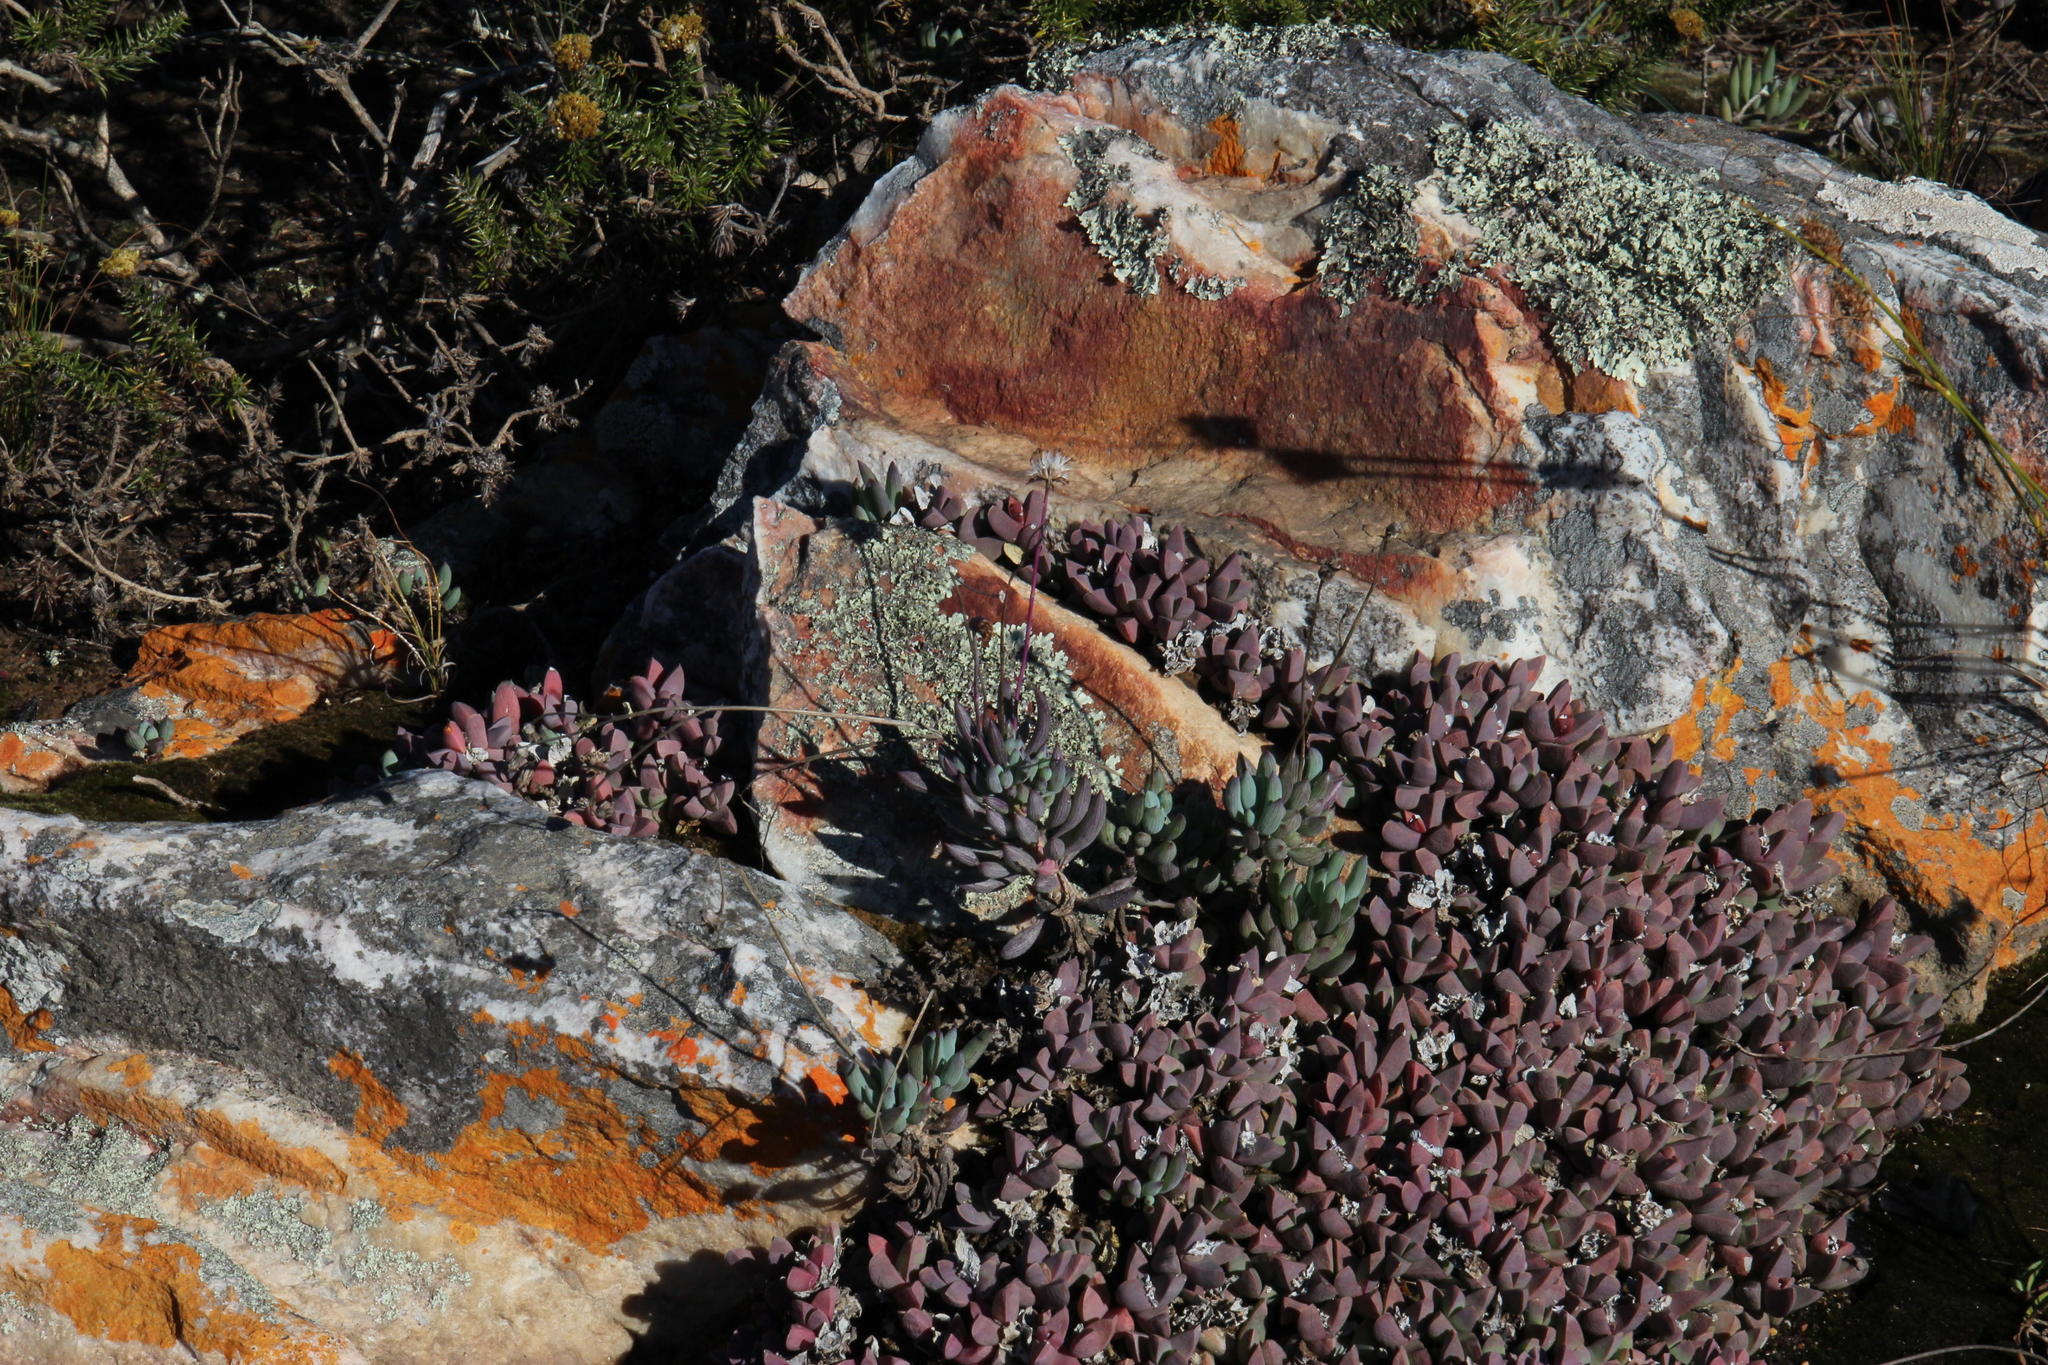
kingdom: Plantae
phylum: Tracheophyta
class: Magnoliopsida
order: Asterales
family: Asteraceae
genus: Curio
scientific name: Curio crassulifolius
